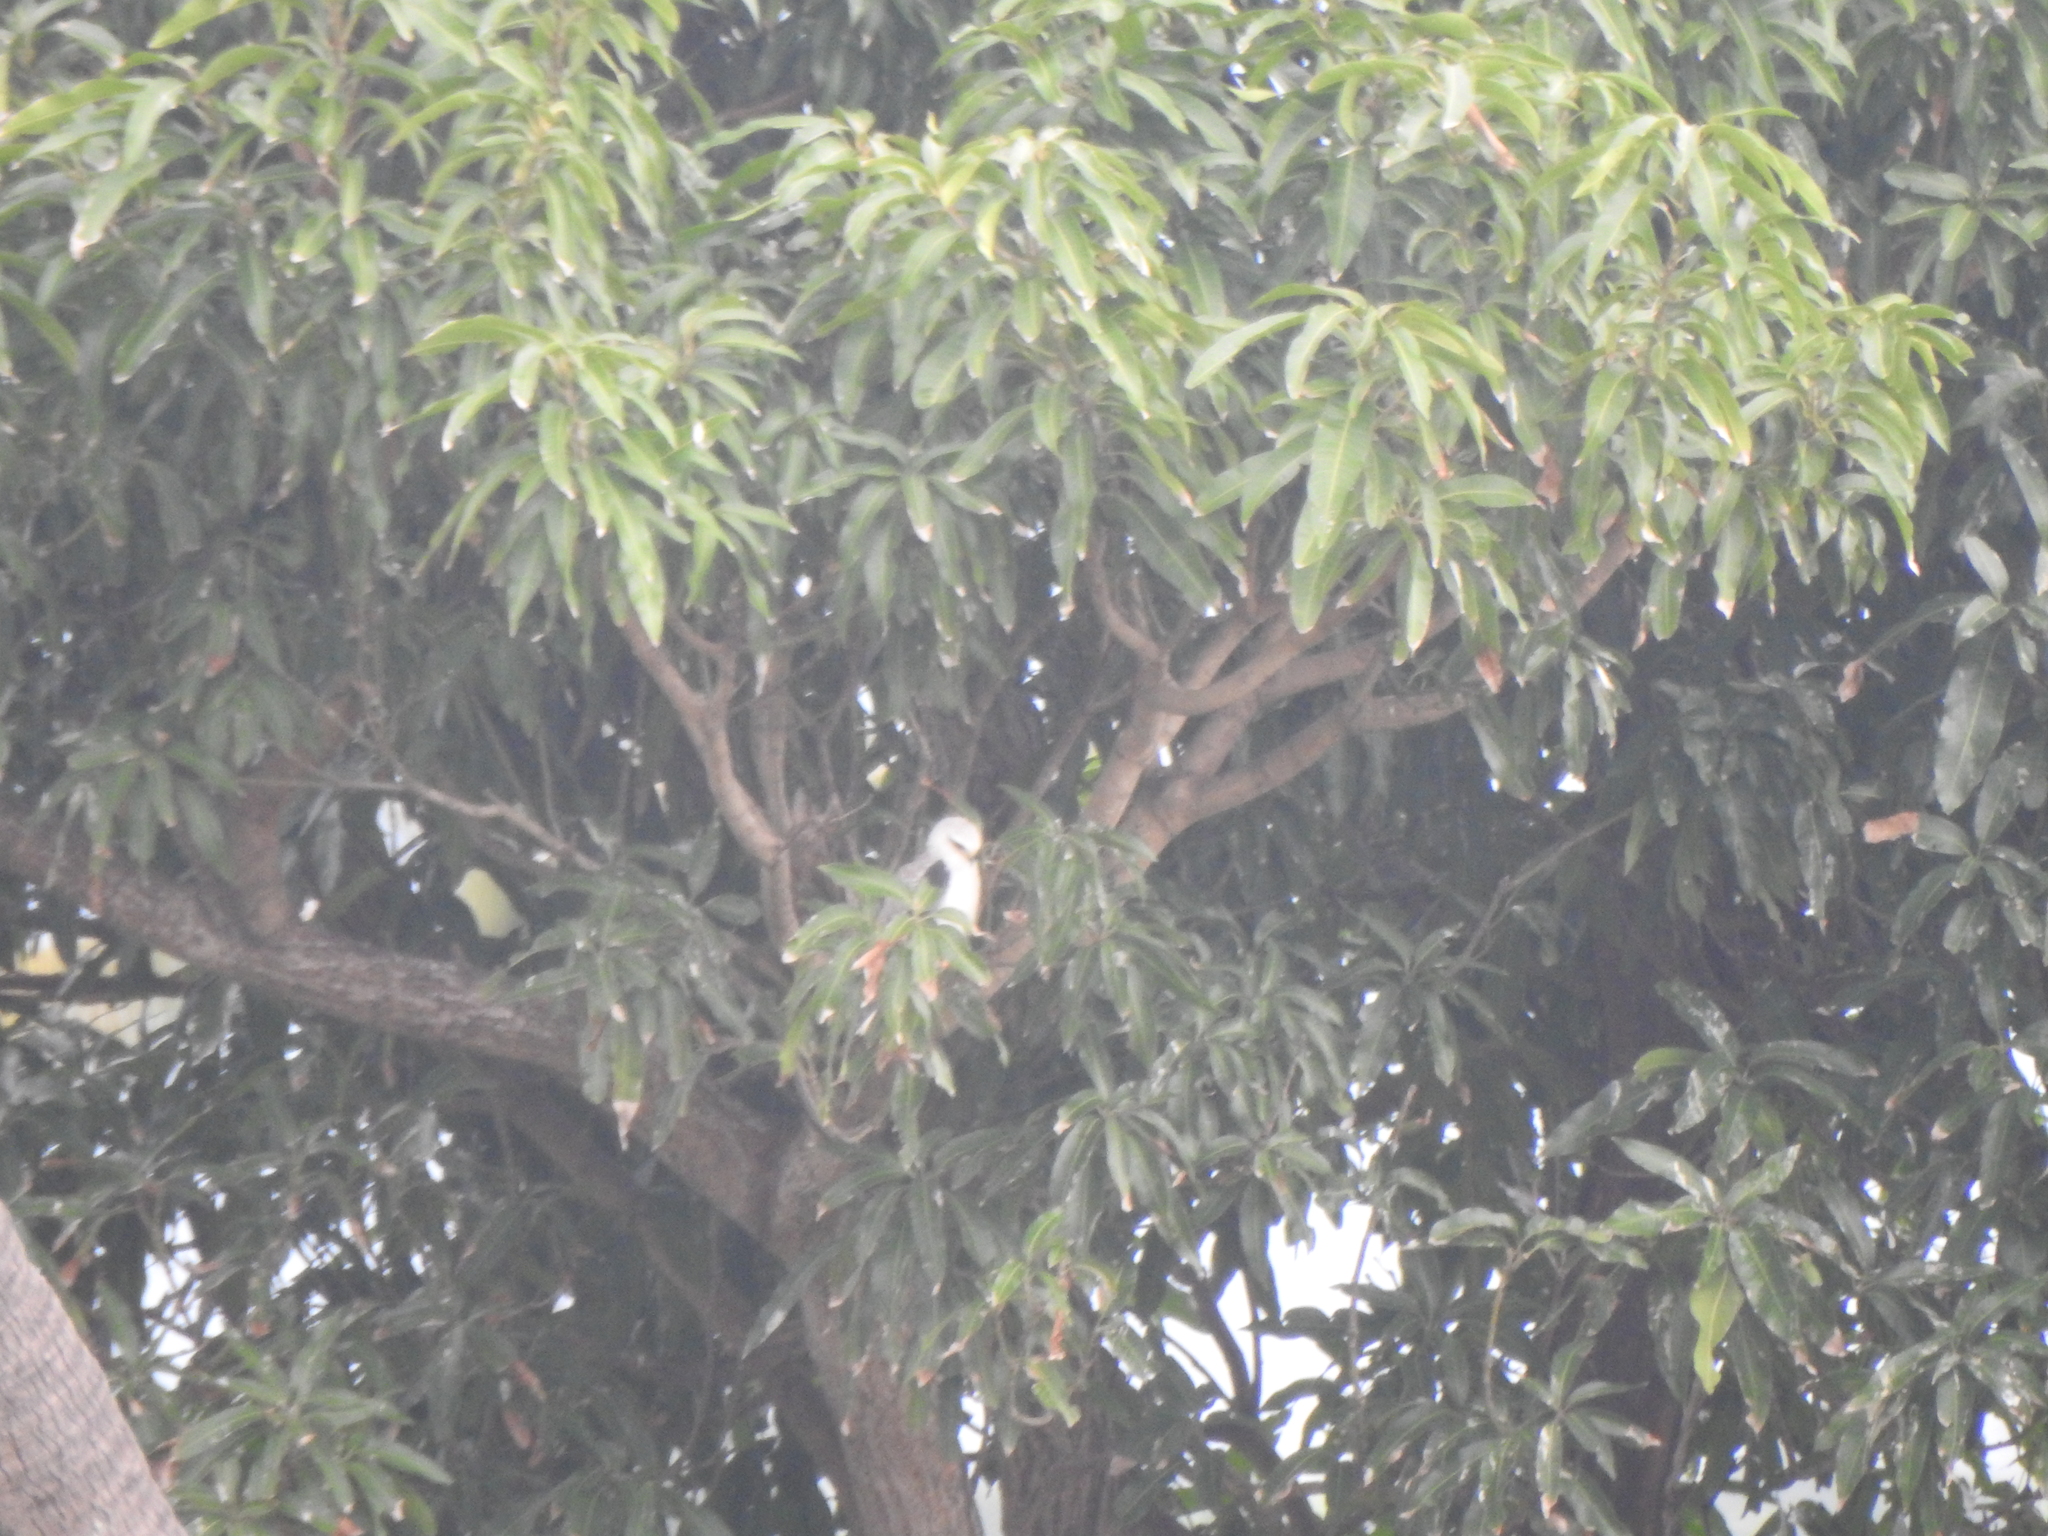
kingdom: Animalia
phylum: Chordata
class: Aves
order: Accipitriformes
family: Accipitridae
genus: Elanus
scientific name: Elanus caeruleus
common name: Black-winged kite
